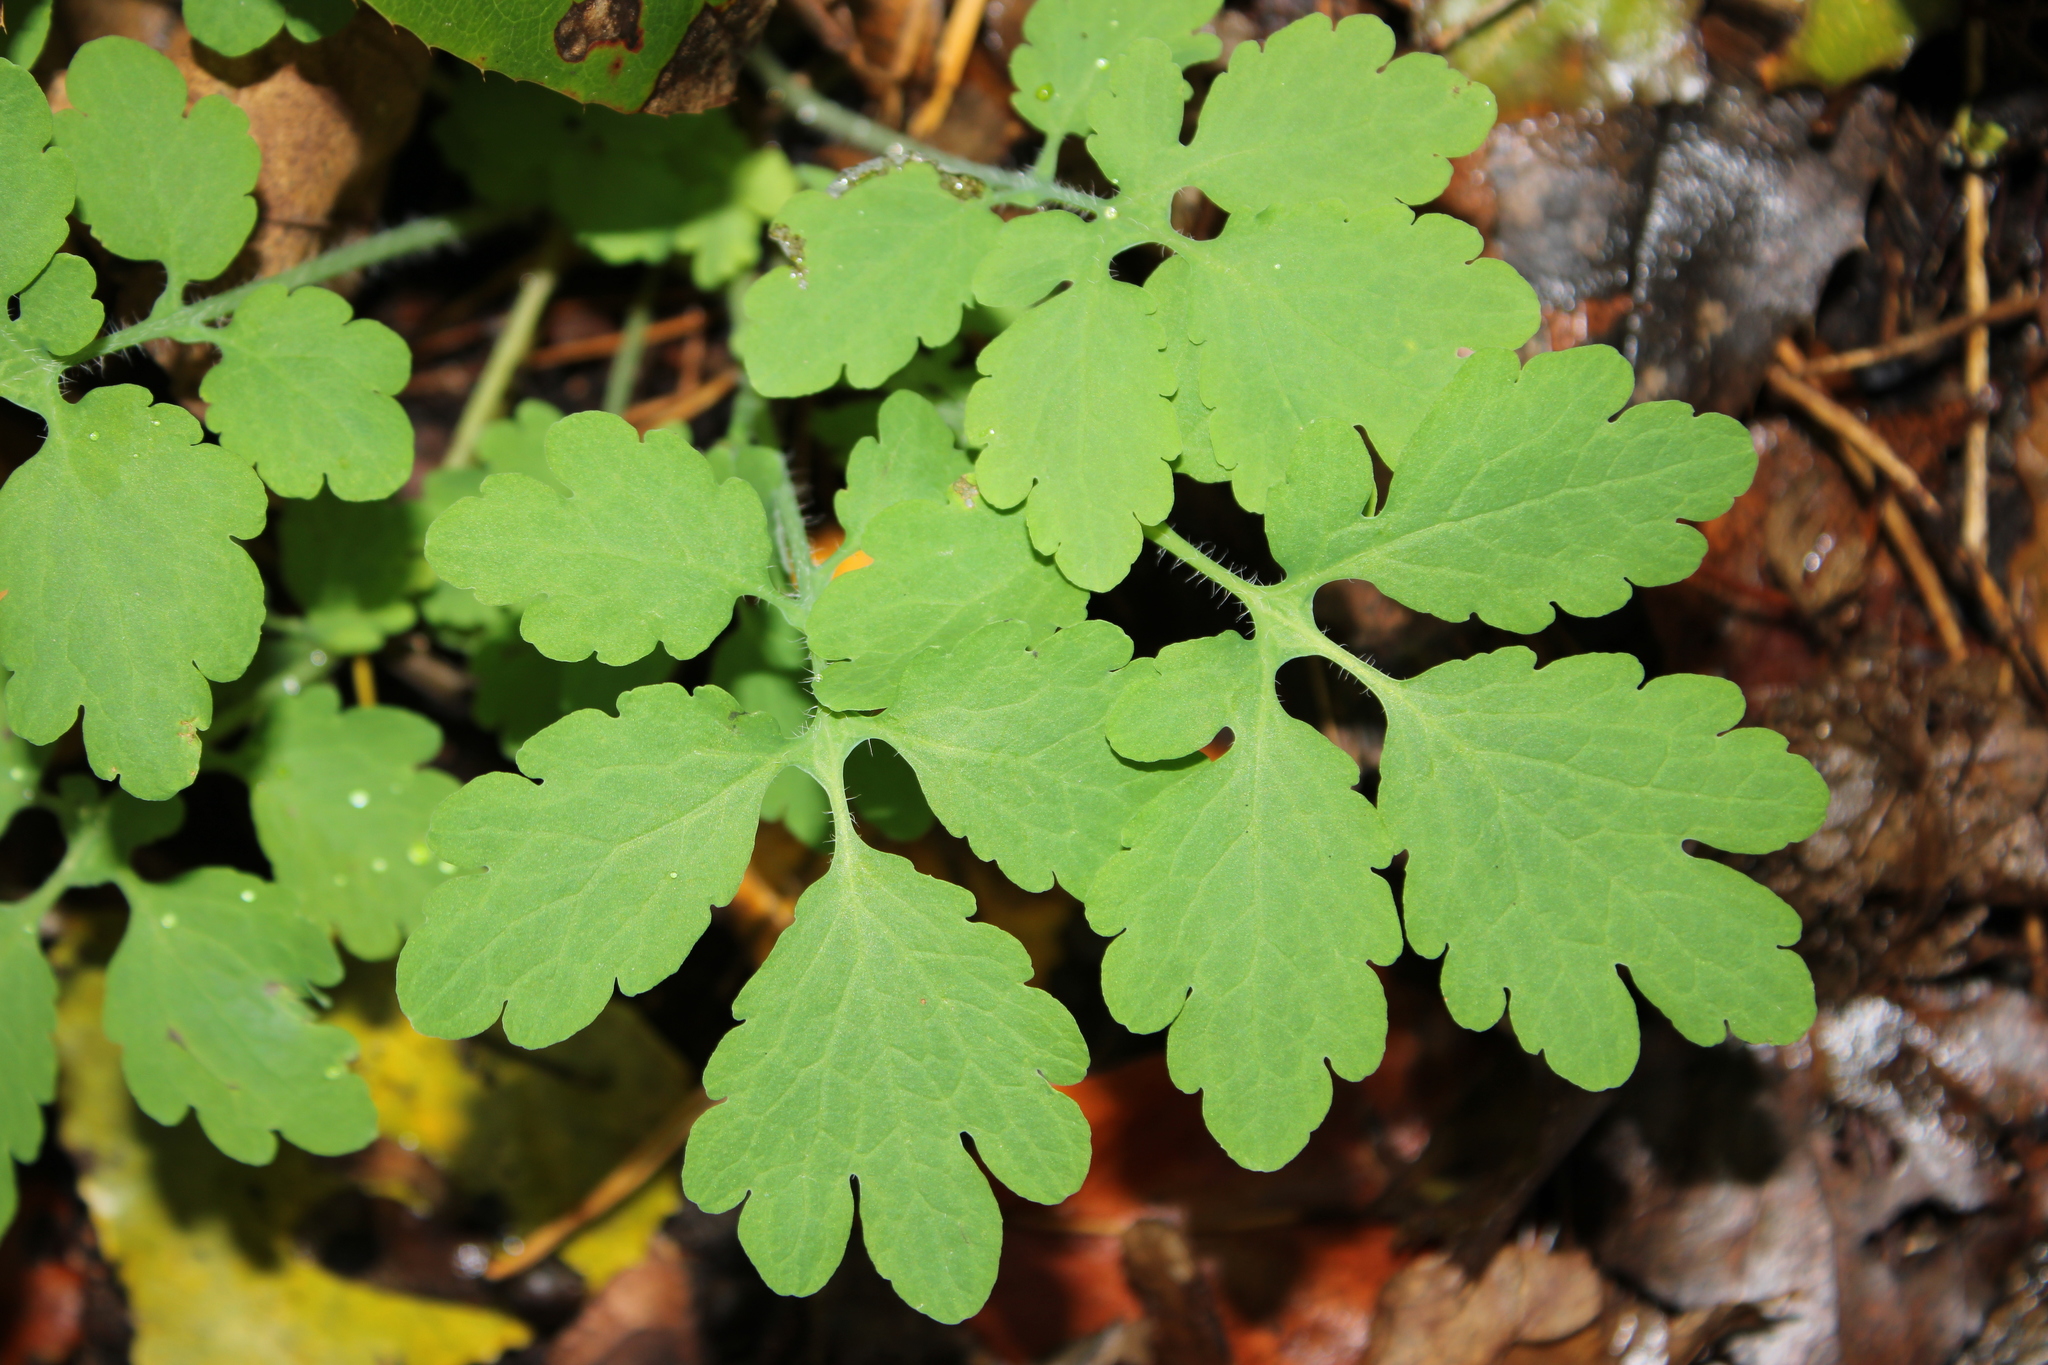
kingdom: Plantae
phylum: Tracheophyta
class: Magnoliopsida
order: Ranunculales
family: Papaveraceae
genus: Chelidonium
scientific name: Chelidonium majus
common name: Greater celandine
